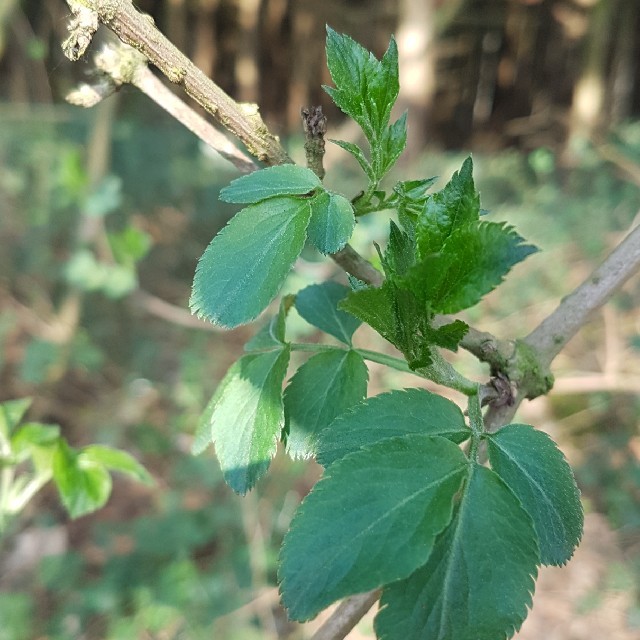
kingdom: Plantae
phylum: Tracheophyta
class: Magnoliopsida
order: Dipsacales
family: Viburnaceae
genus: Sambucus
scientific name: Sambucus nigra
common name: Elder
